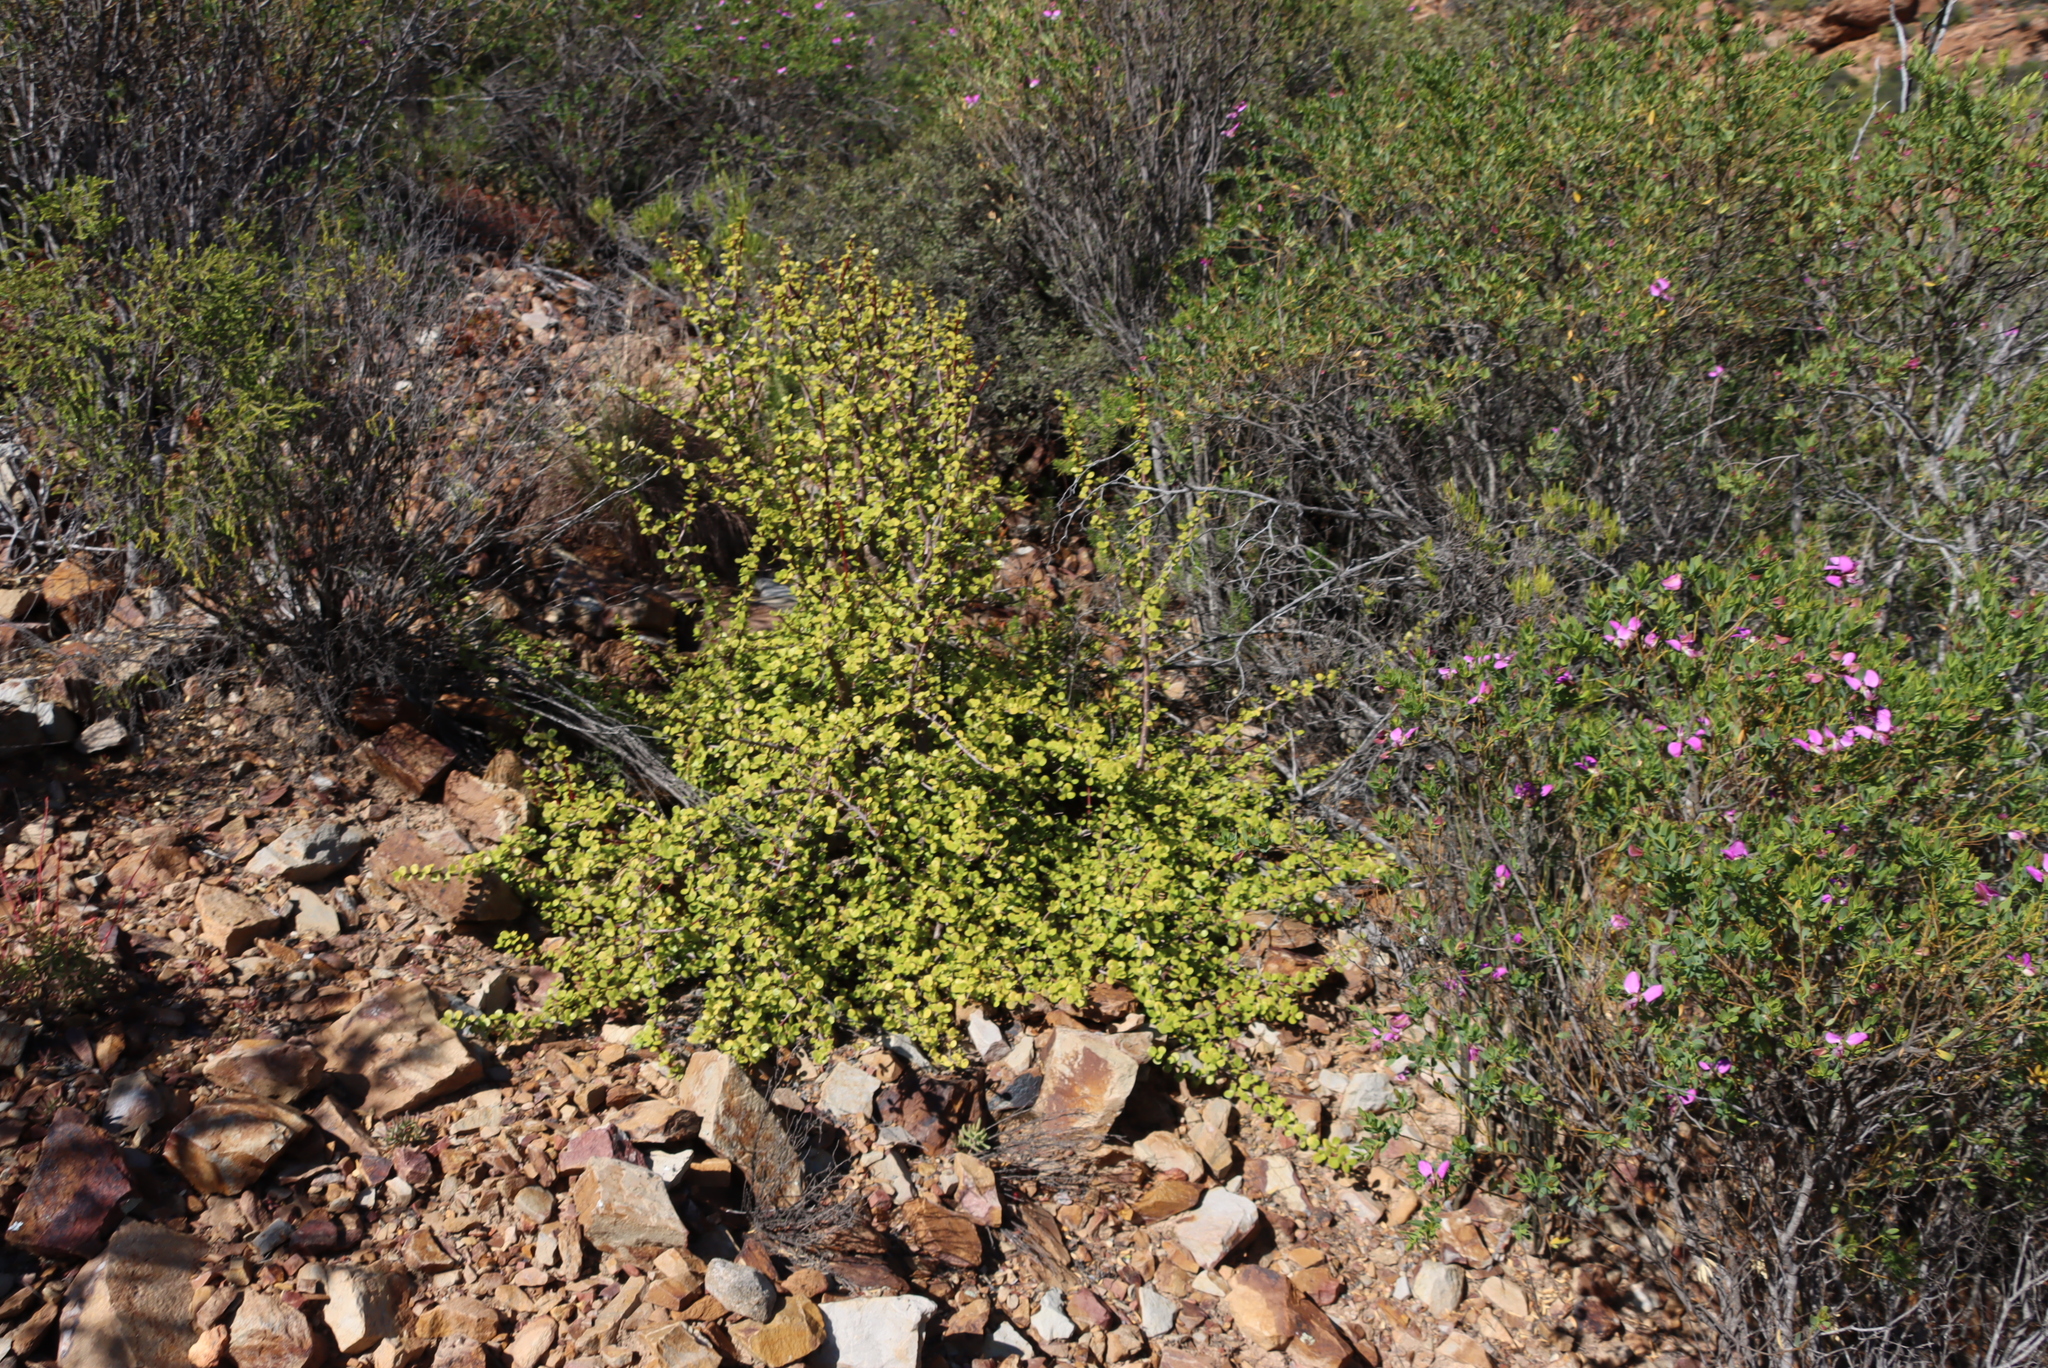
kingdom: Plantae
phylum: Tracheophyta
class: Magnoliopsida
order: Caryophyllales
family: Didiereaceae
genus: Portulacaria
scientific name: Portulacaria afra
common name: Elephant-bush
